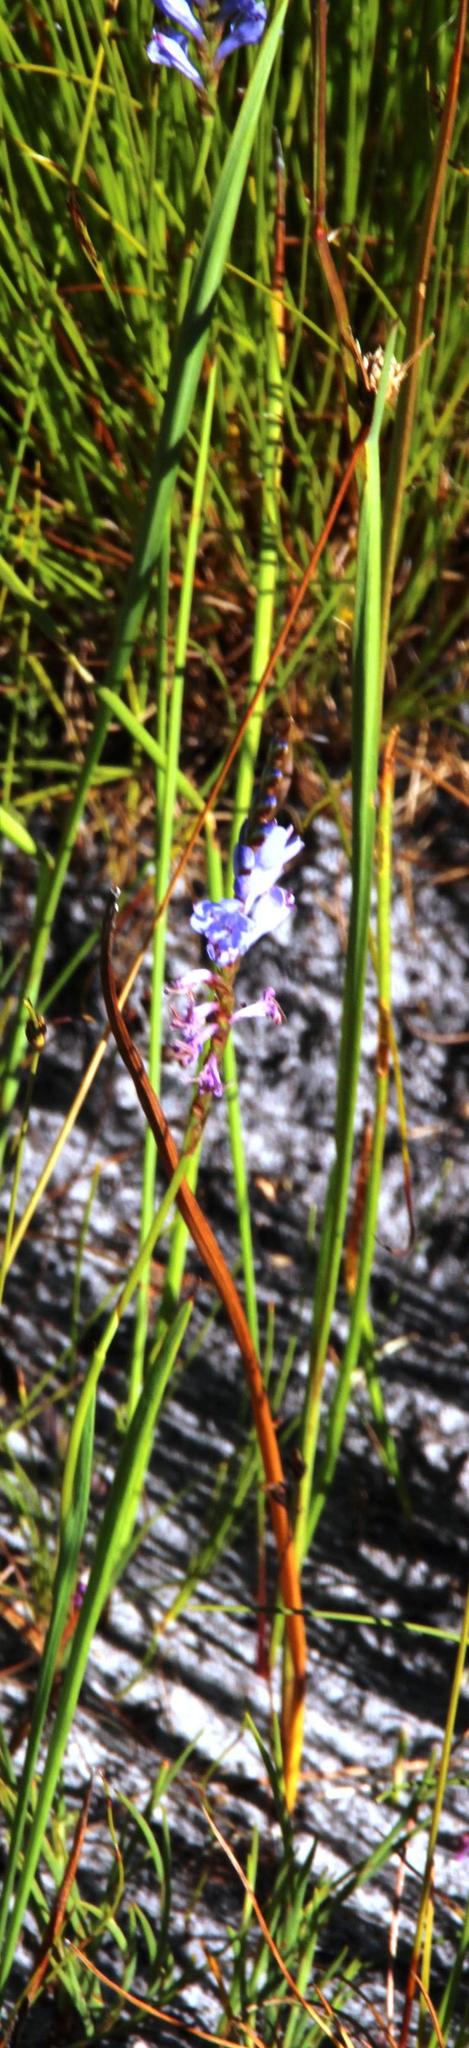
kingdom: Plantae
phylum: Tracheophyta
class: Liliopsida
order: Asparagales
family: Iridaceae
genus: Micranthus
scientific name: Micranthus alopecuroides
